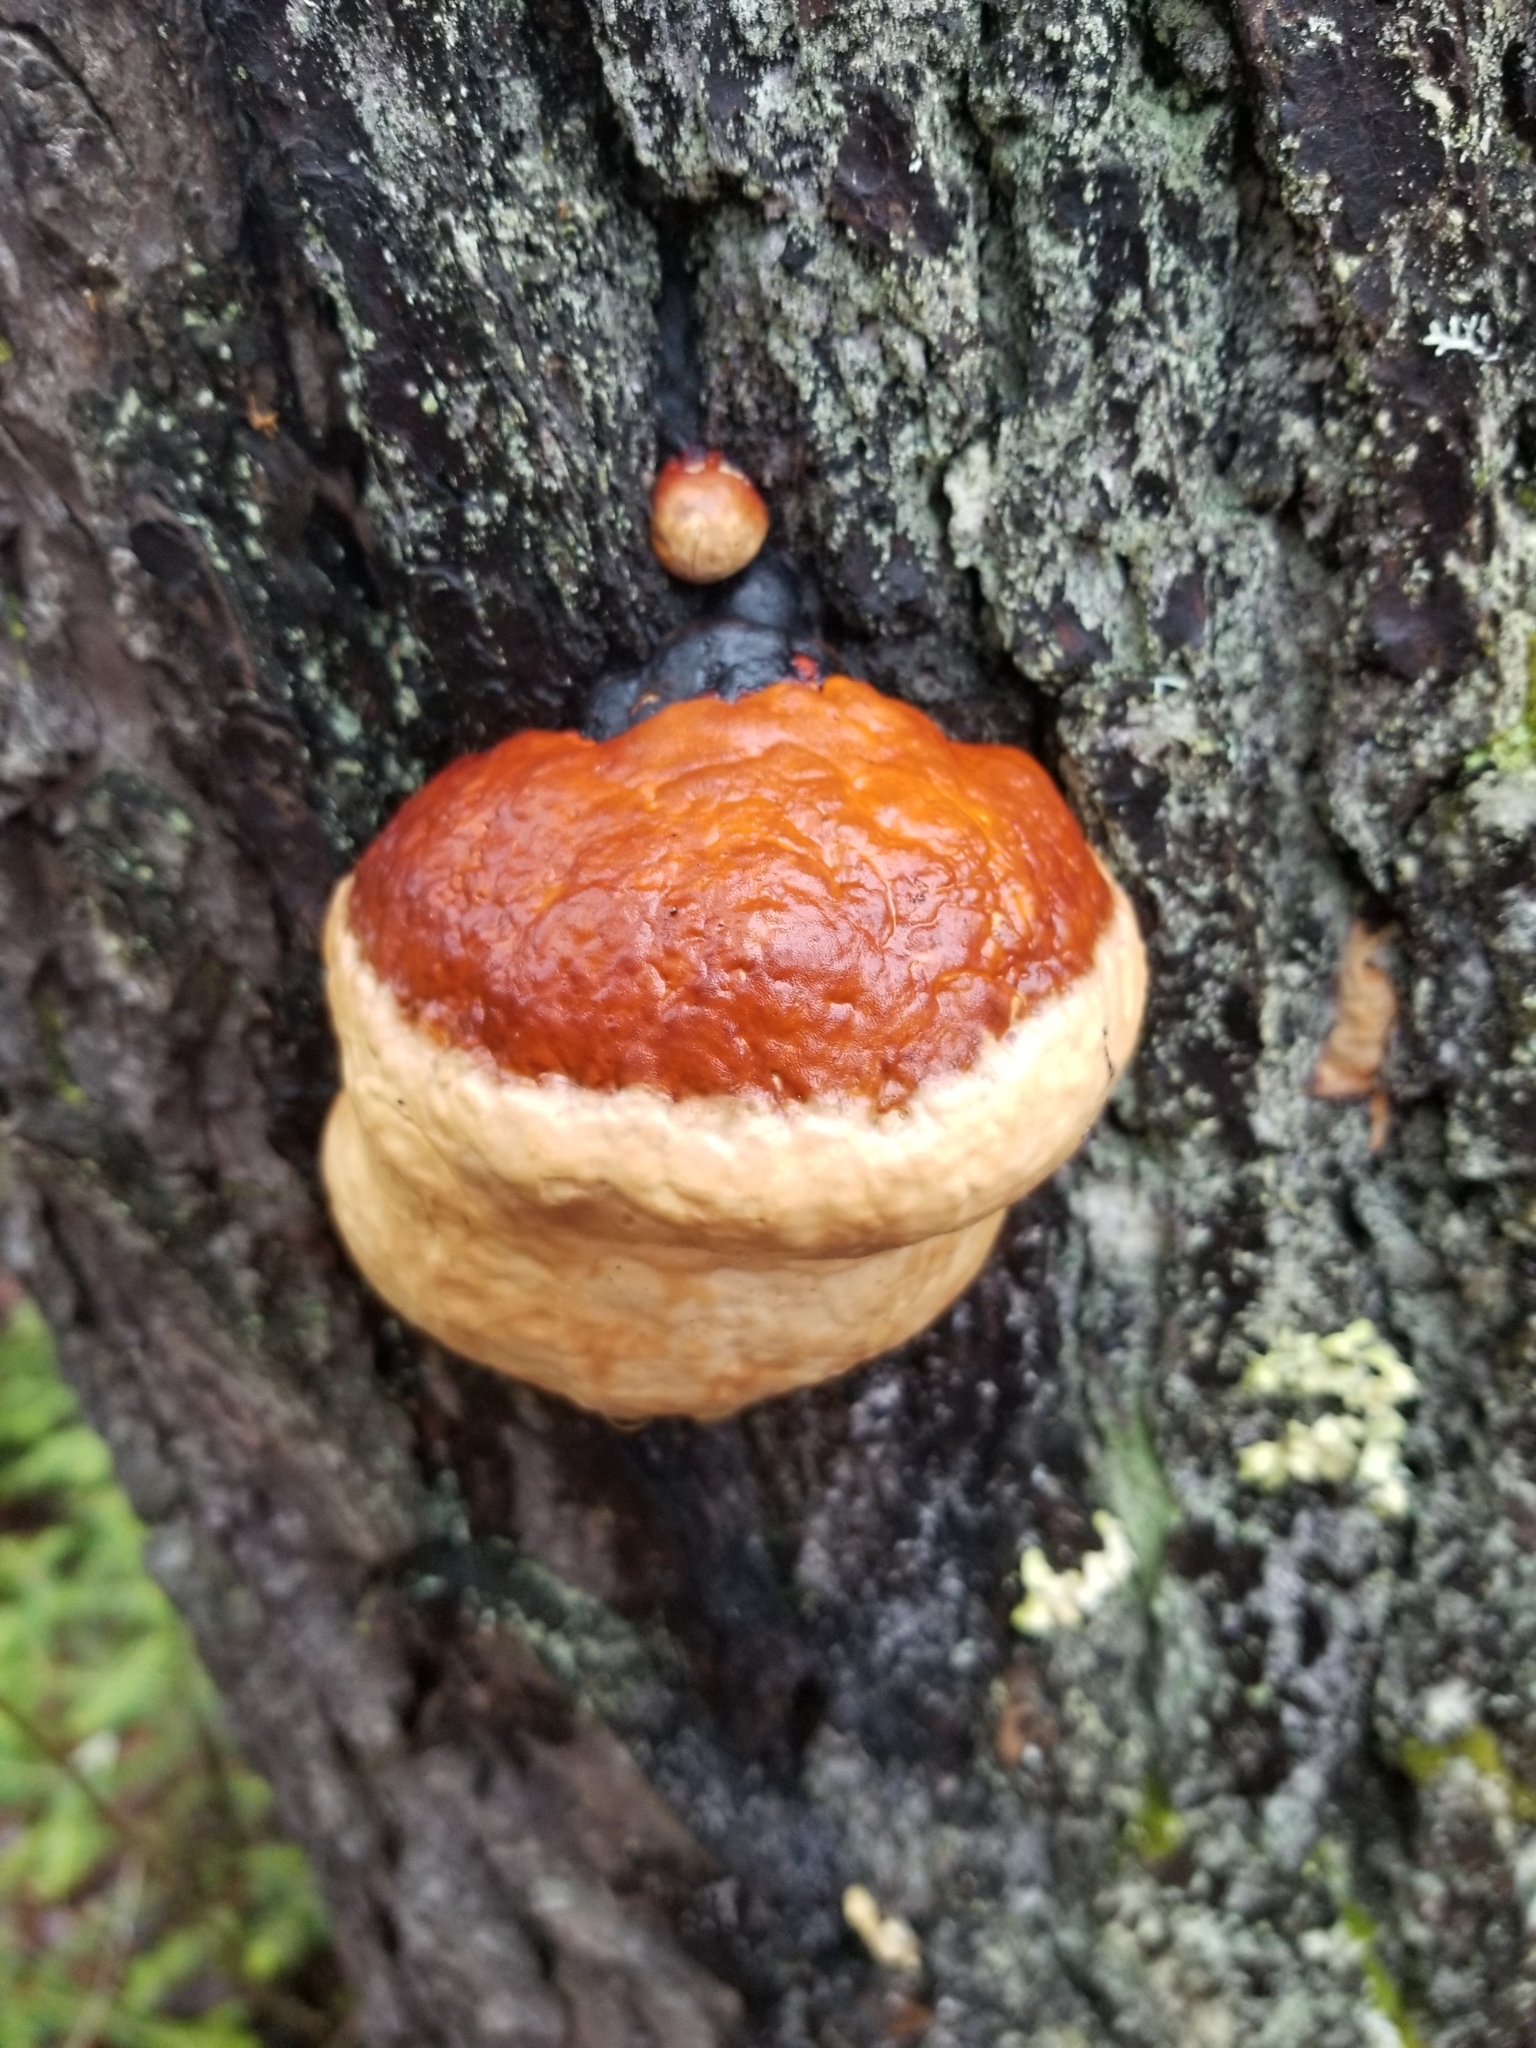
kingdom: Fungi
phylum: Basidiomycota
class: Agaricomycetes
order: Polyporales
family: Fomitopsidaceae
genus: Fomitopsis
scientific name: Fomitopsis mounceae
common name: Northern red belt
